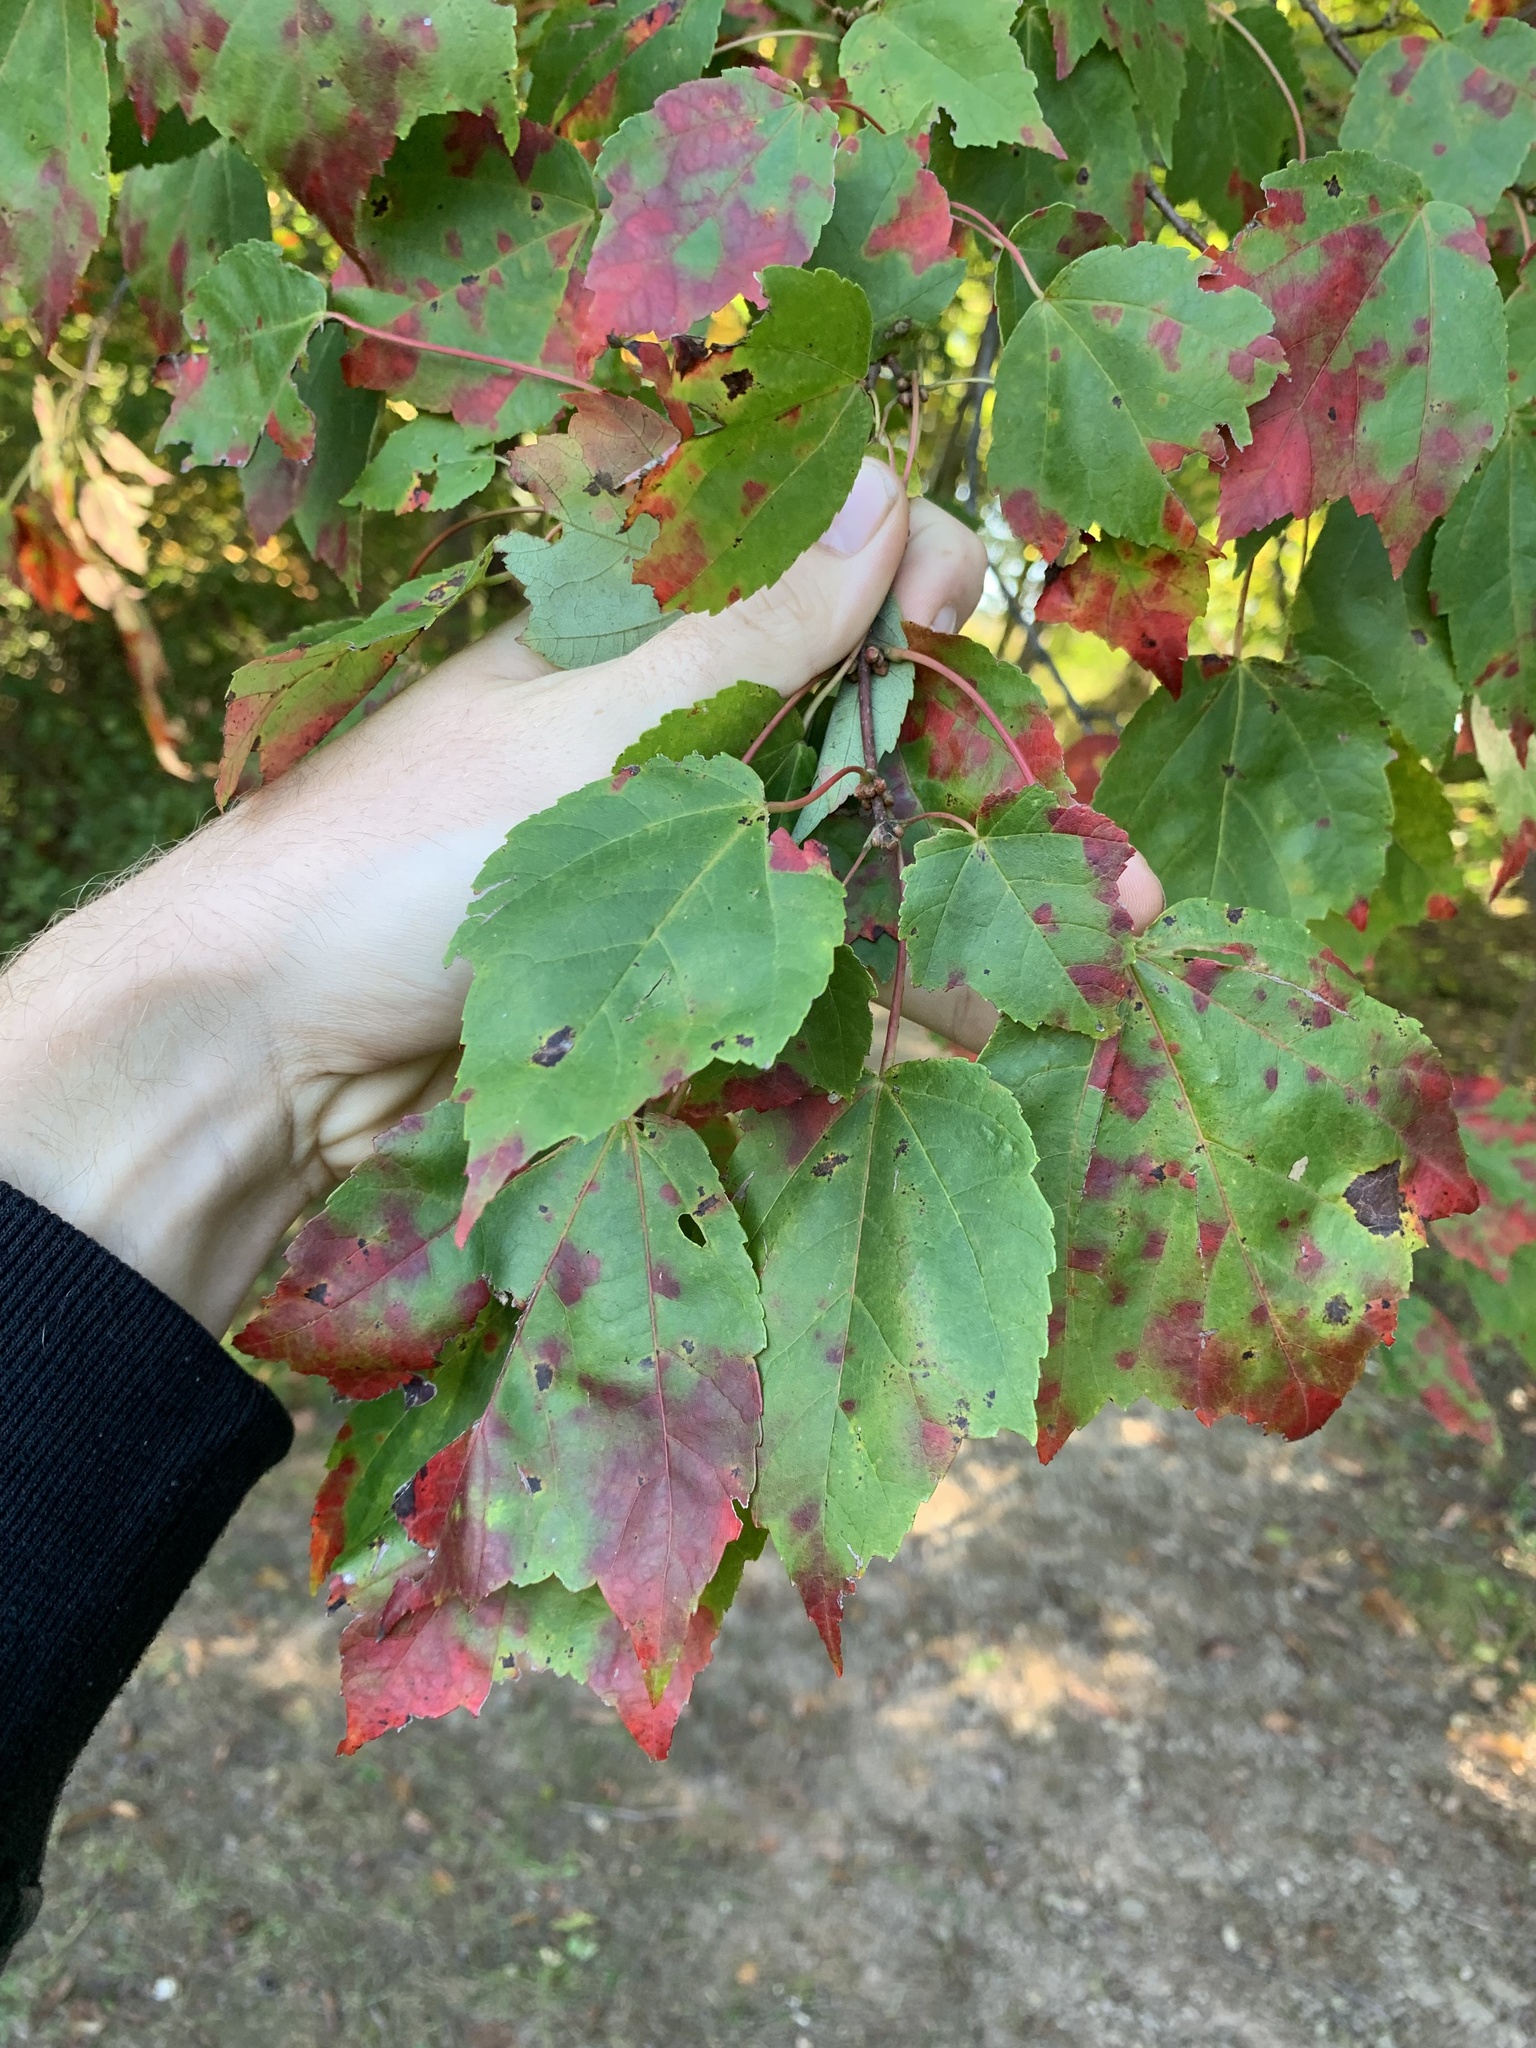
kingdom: Plantae
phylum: Tracheophyta
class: Magnoliopsida
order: Sapindales
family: Sapindaceae
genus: Acer
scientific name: Acer rubrum
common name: Red maple
